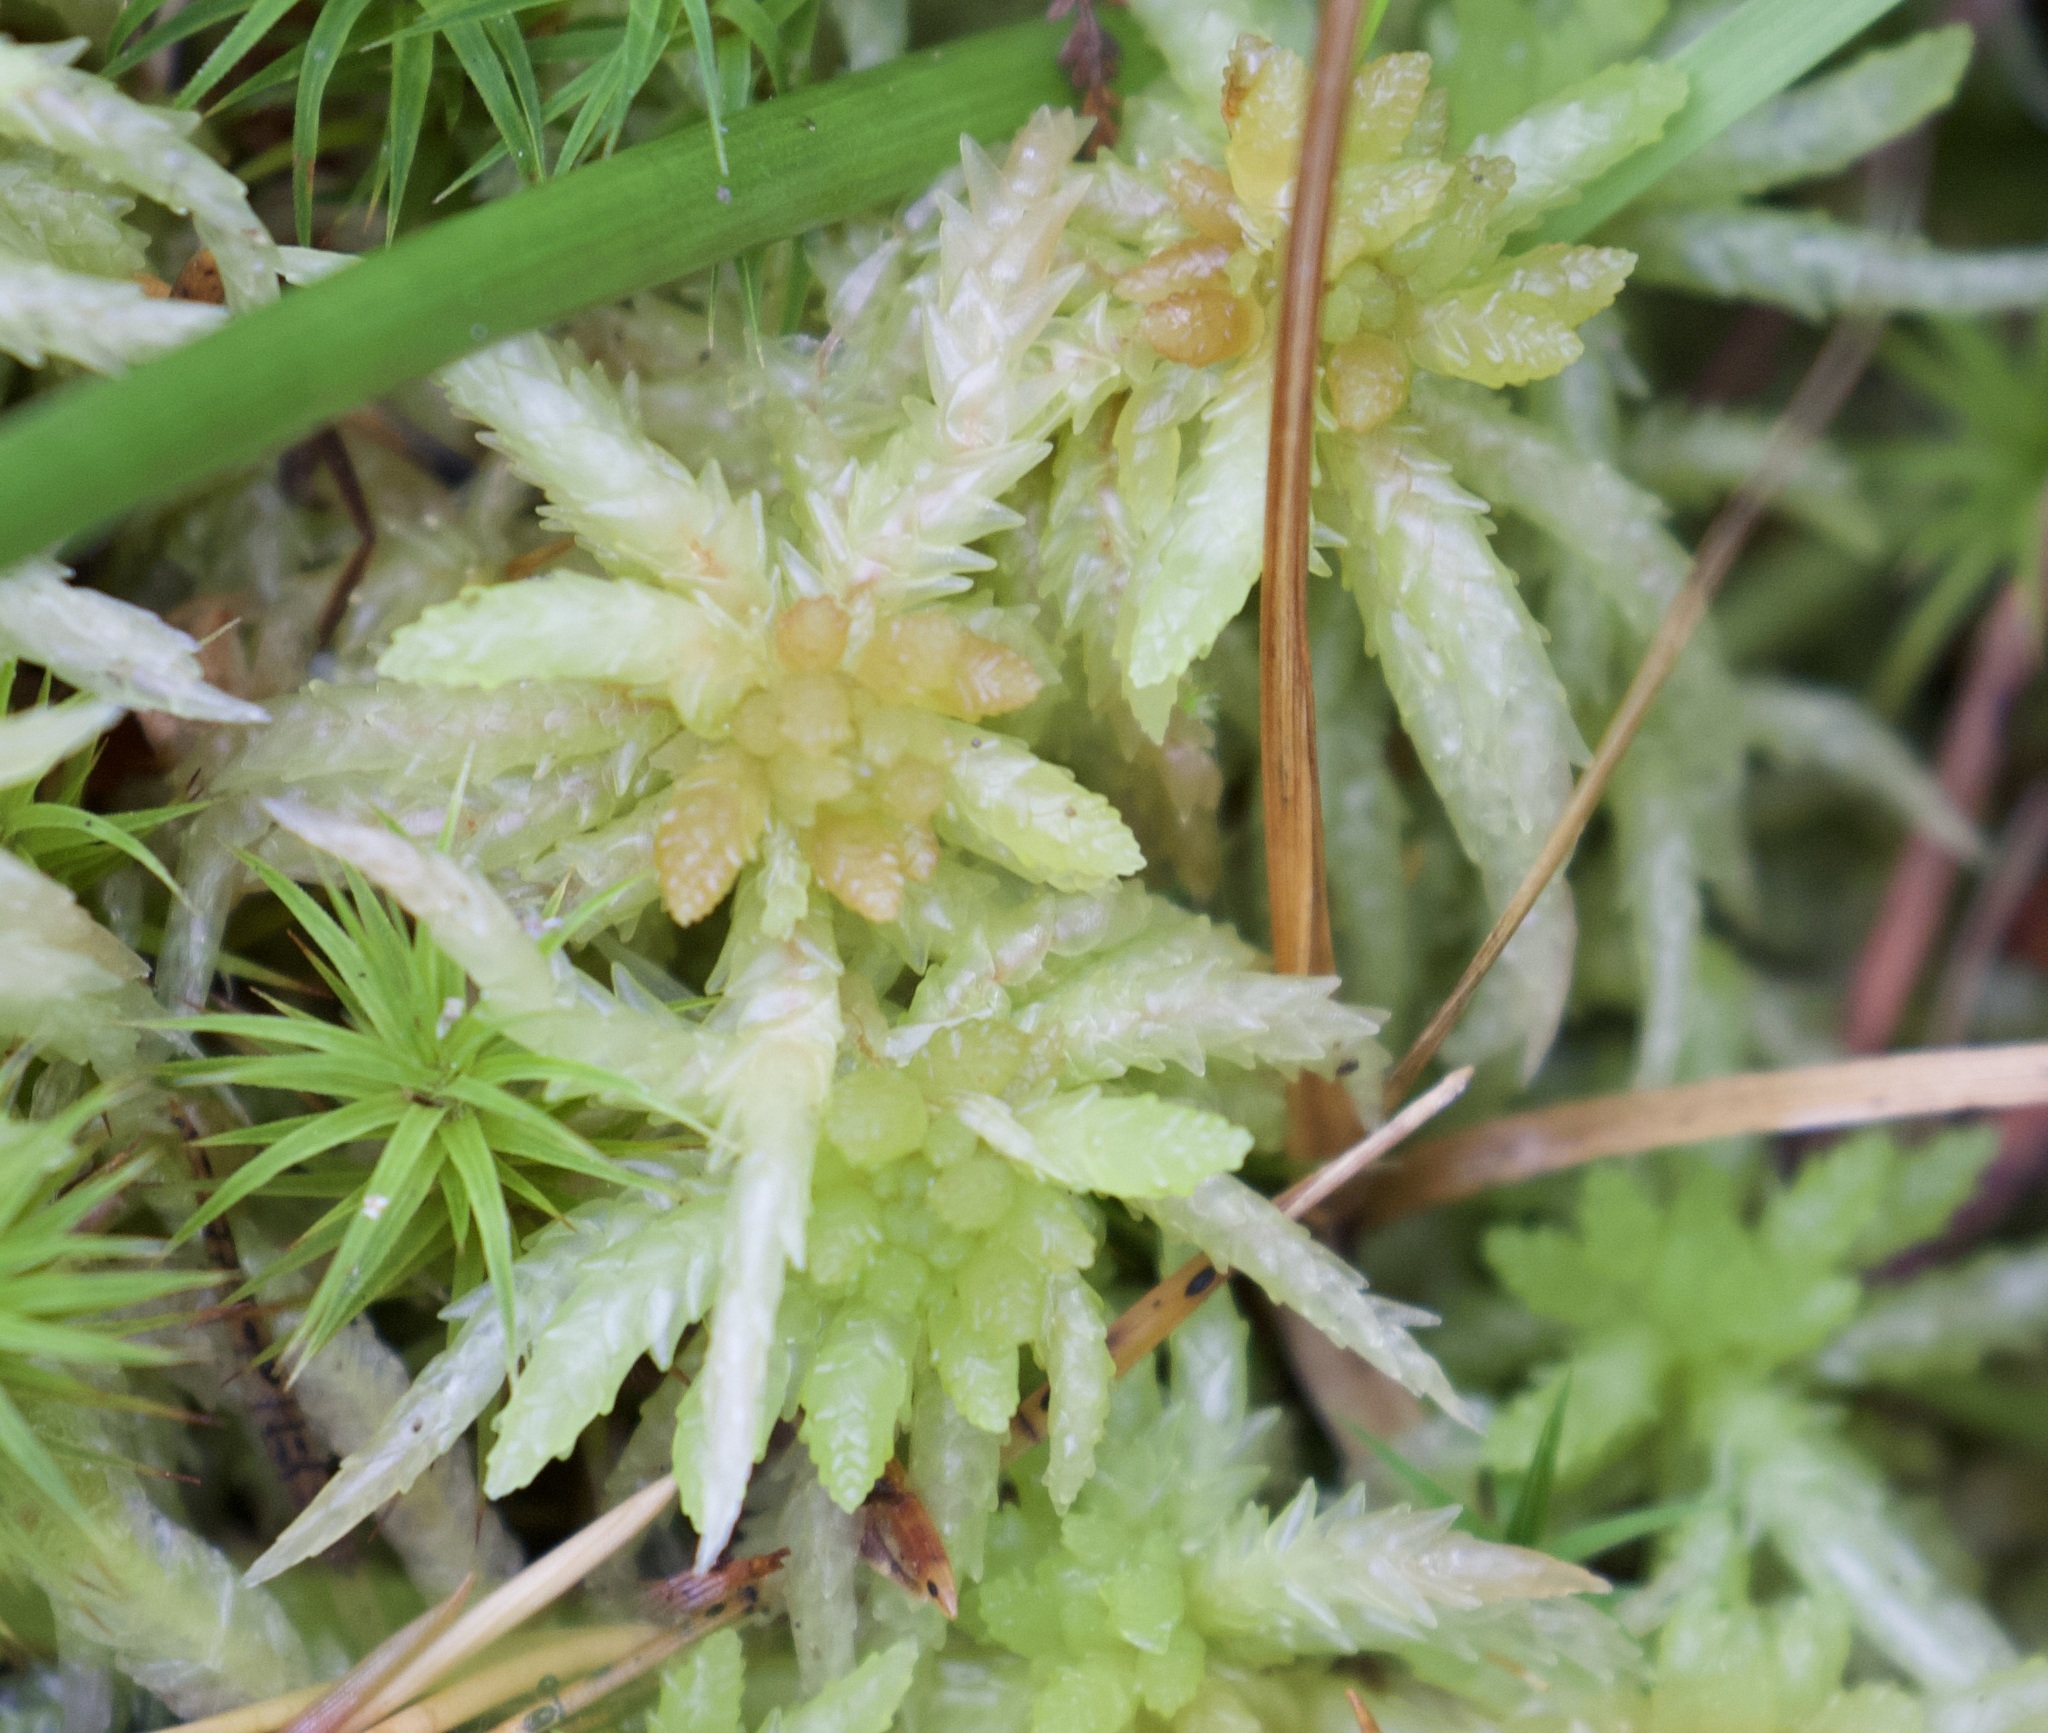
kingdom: Plantae
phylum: Bryophyta
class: Sphagnopsida
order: Sphagnales
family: Sphagnaceae
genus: Sphagnum
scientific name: Sphagnum palustre
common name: Blunt-leaved bog-moss
